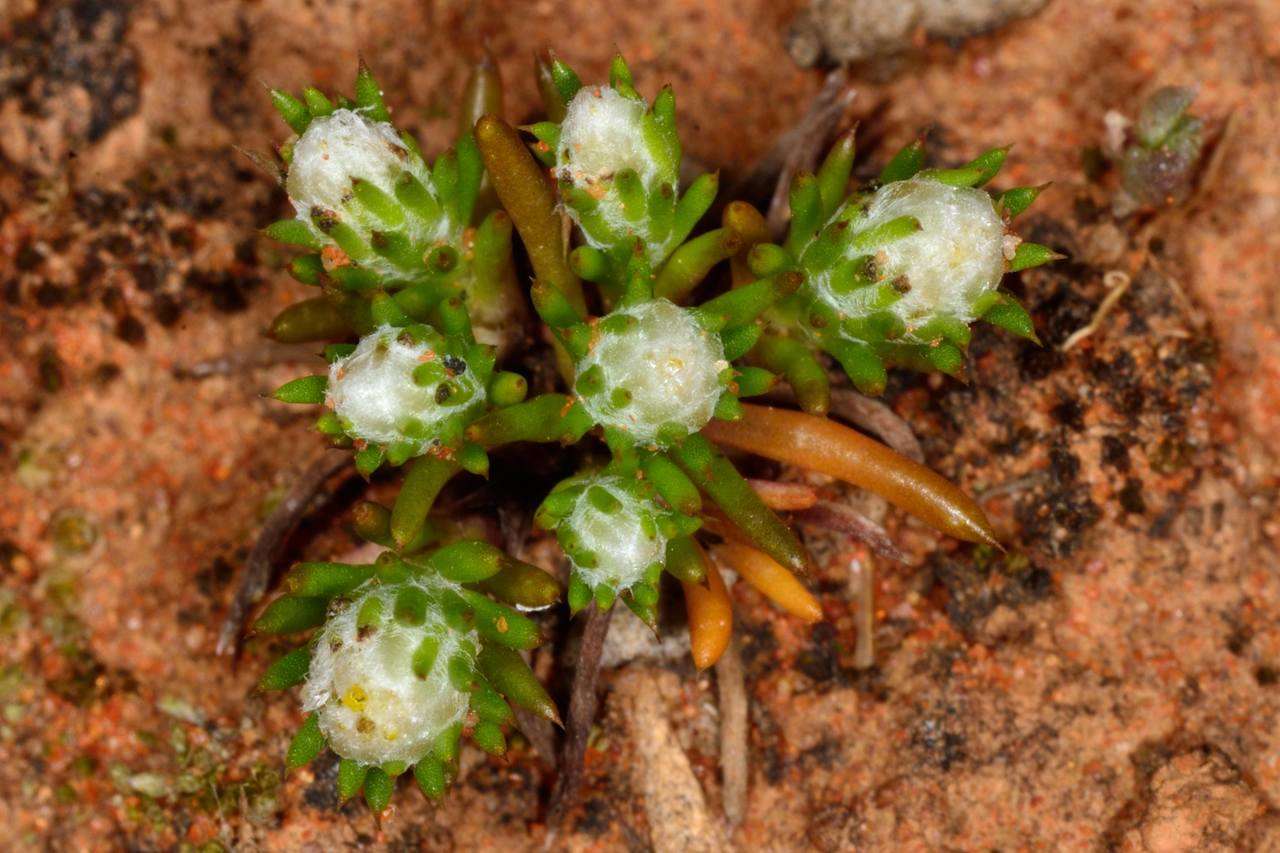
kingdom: Plantae
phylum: Tracheophyta
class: Magnoliopsida
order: Asterales
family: Asteraceae
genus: Pogonolepis
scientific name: Pogonolepis muelleriana
